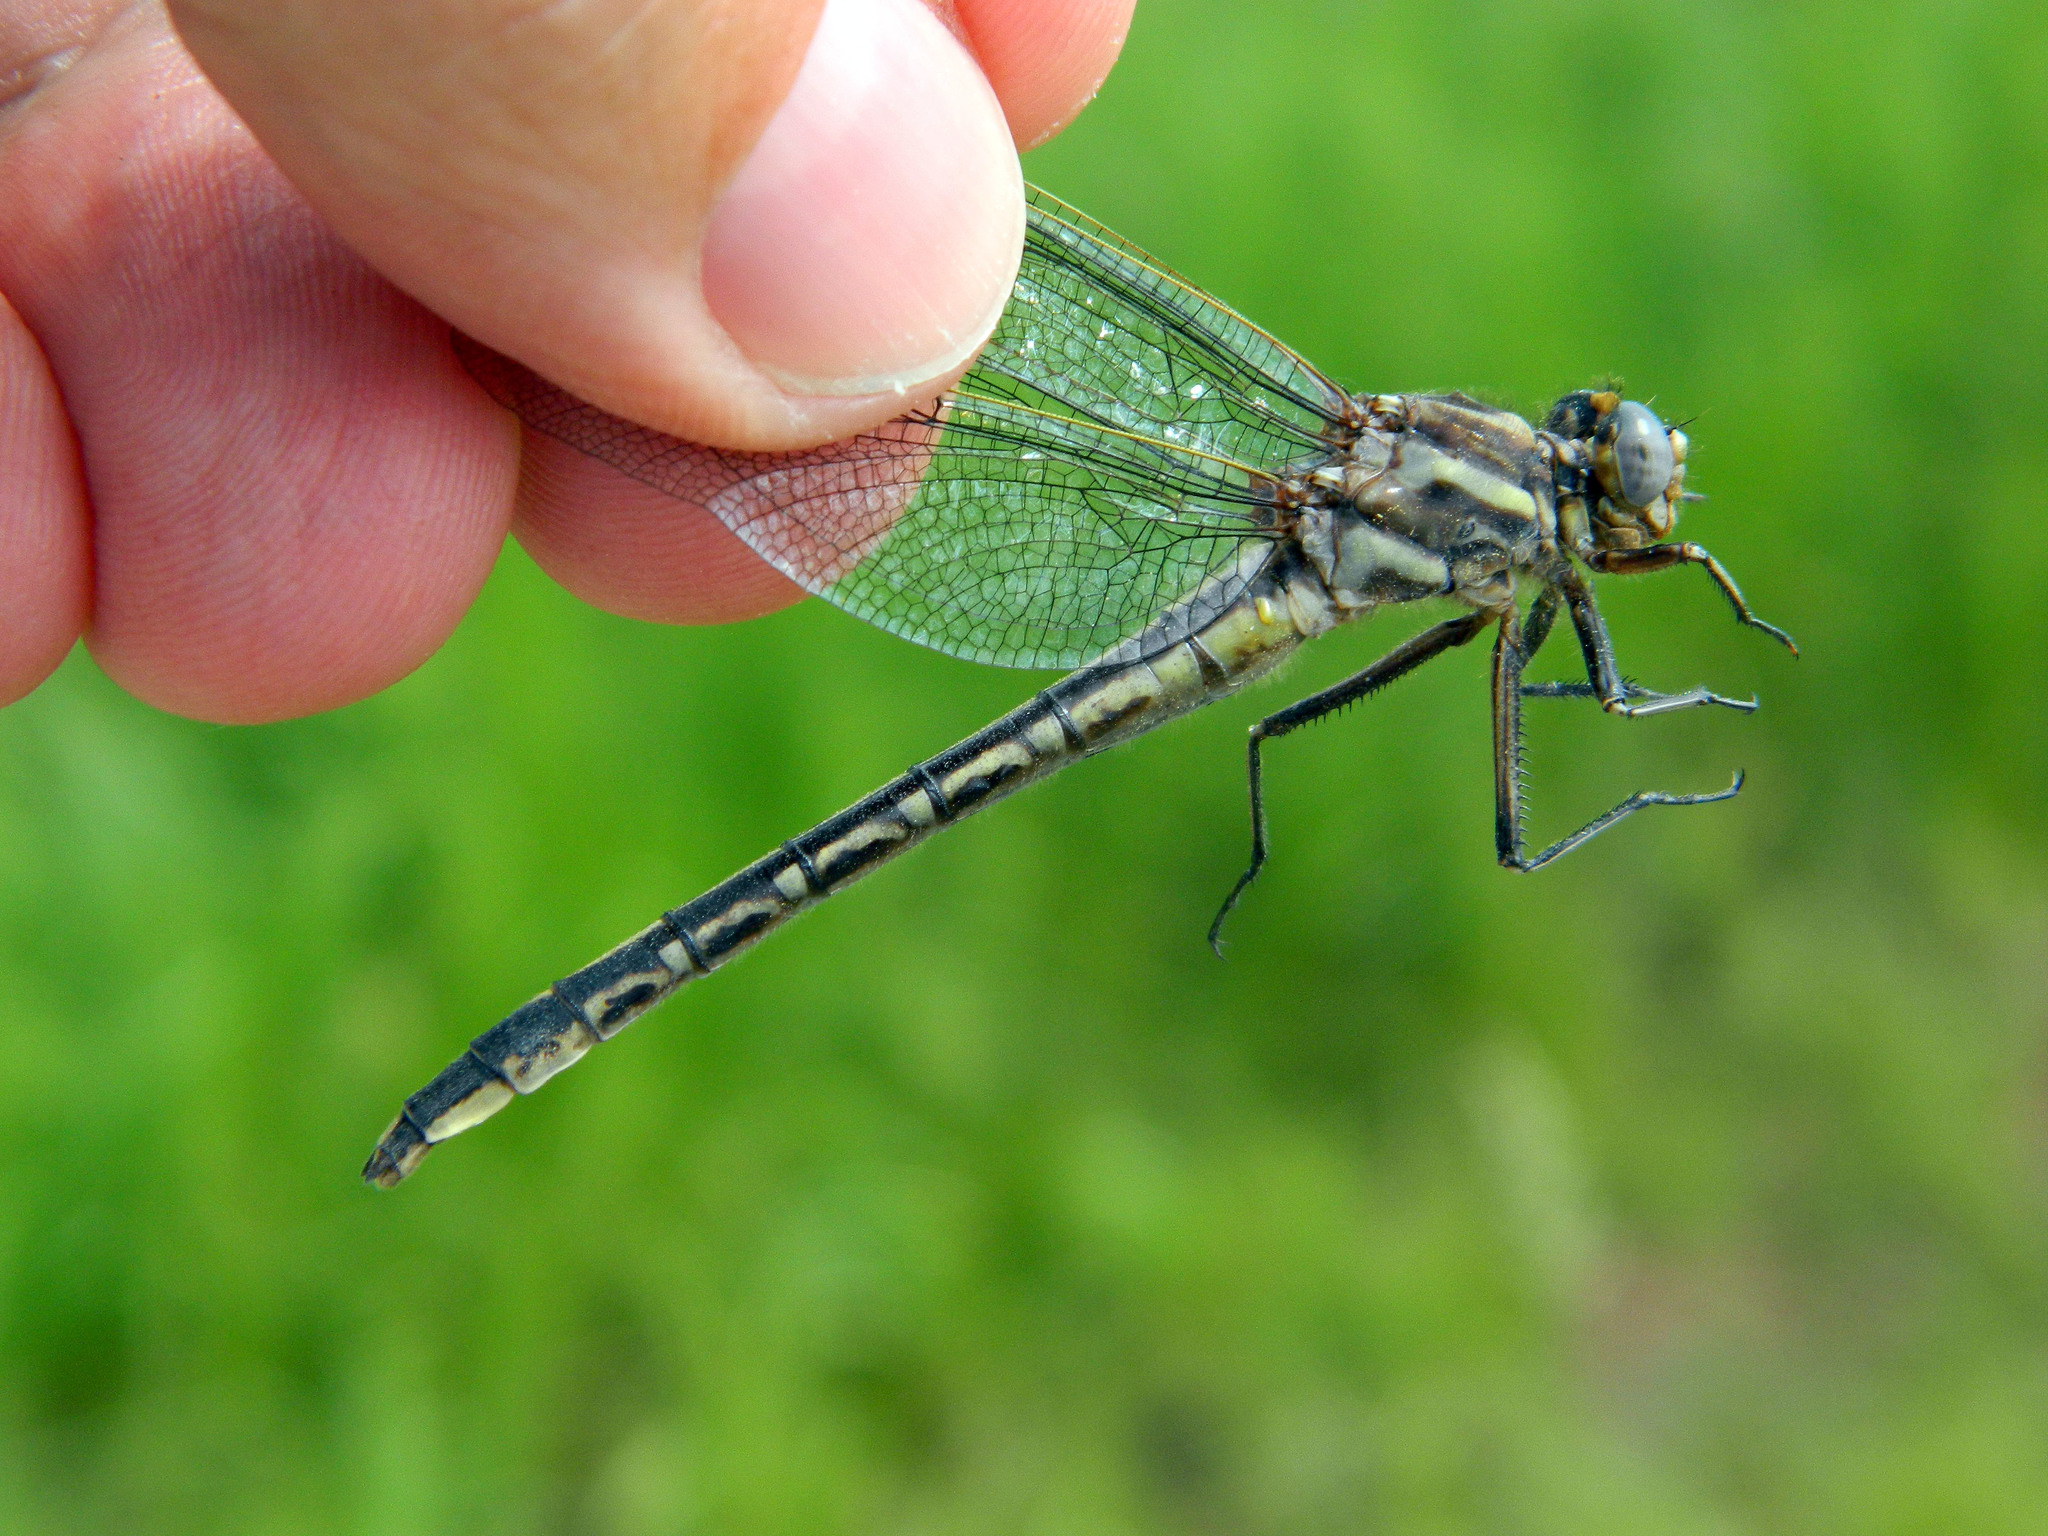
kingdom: Animalia
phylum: Arthropoda
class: Insecta
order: Odonata
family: Gomphidae
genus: Phanogomphus
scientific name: Phanogomphus spicatus
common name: Dusky clubtail
